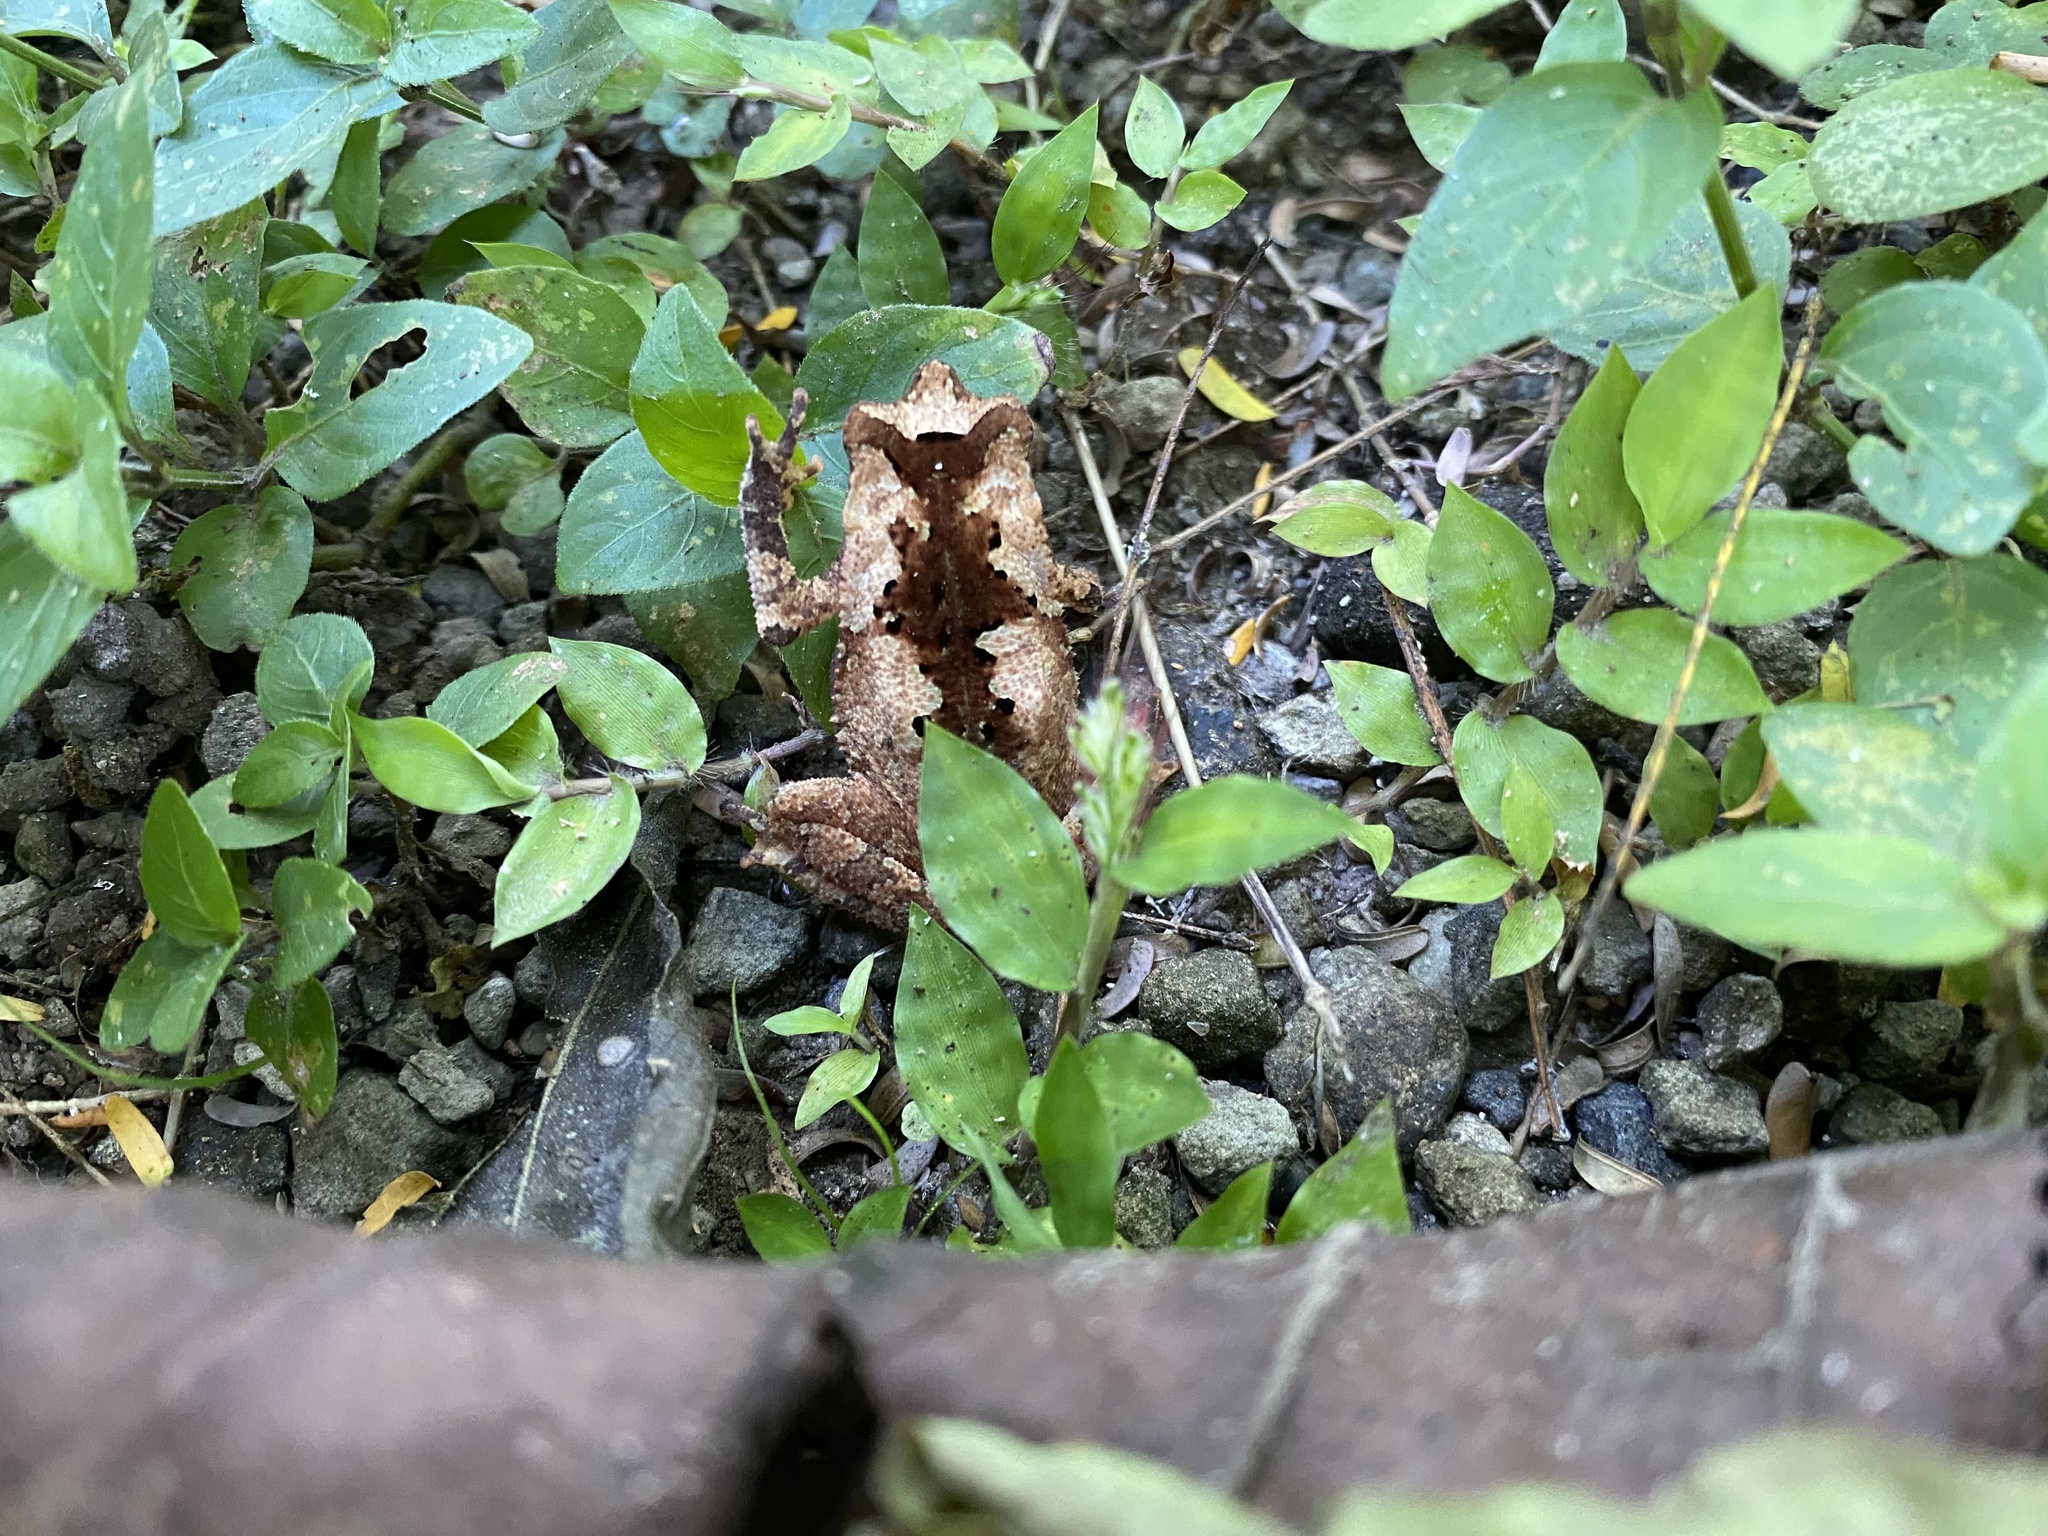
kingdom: Animalia
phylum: Chordata
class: Amphibia
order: Anura
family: Bufonidae
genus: Rhinella
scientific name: Rhinella alata
